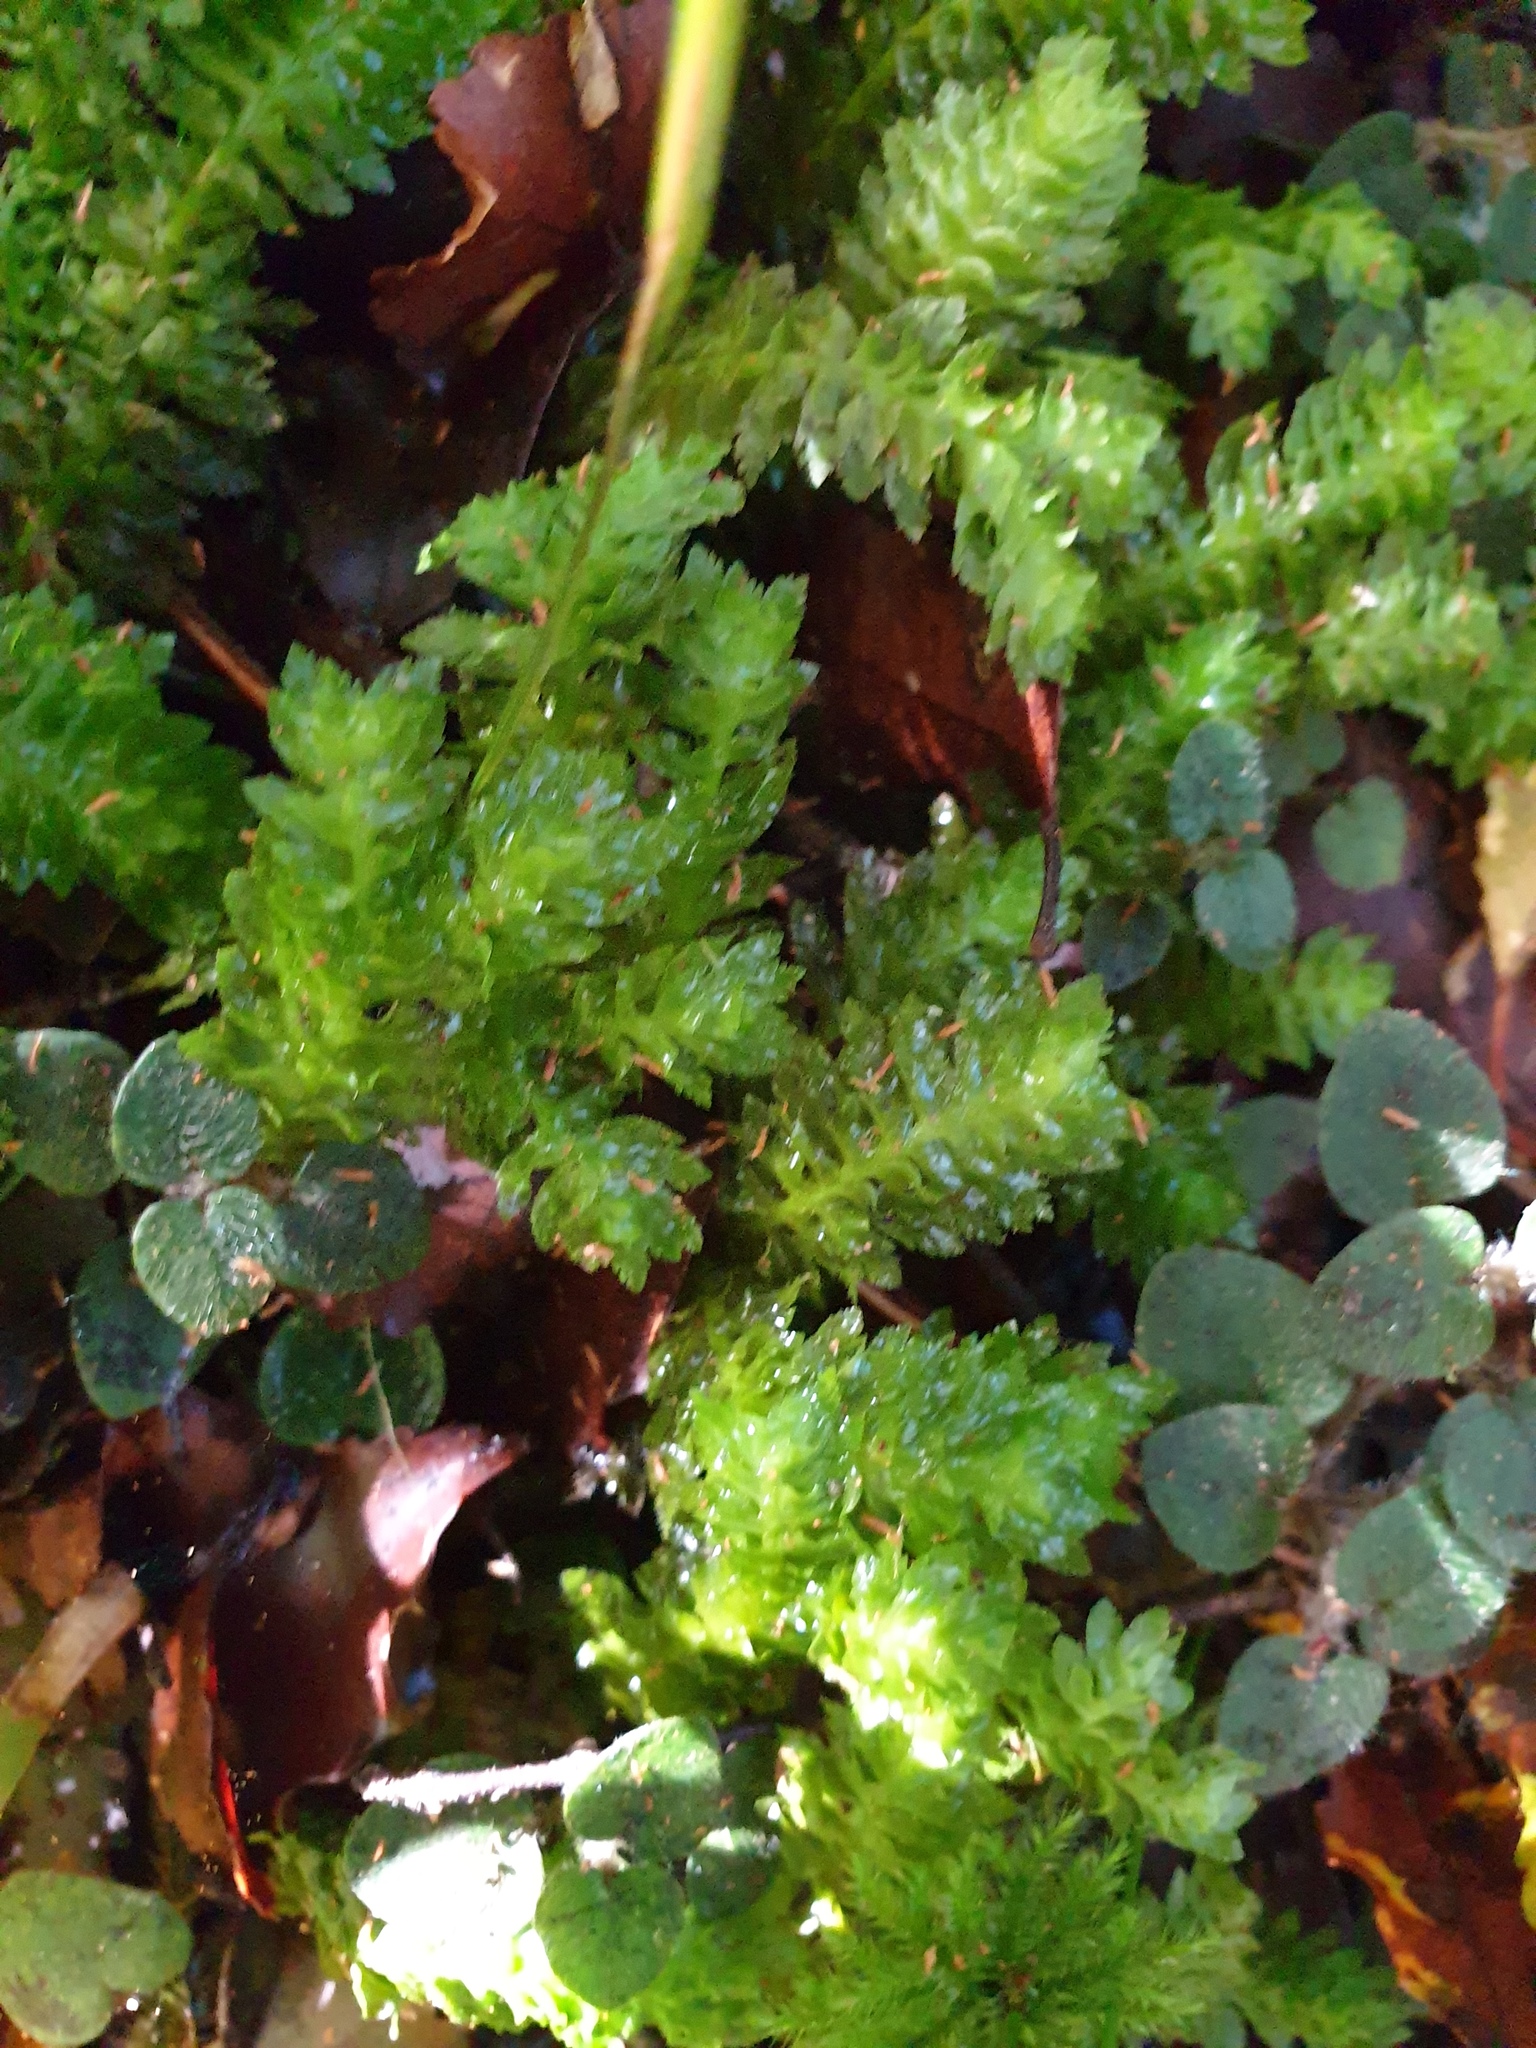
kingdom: Plantae
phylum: Marchantiophyta
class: Jungermanniopsida
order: Jungermanniales
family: Schistochilaceae
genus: Schistochila
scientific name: Schistochila
